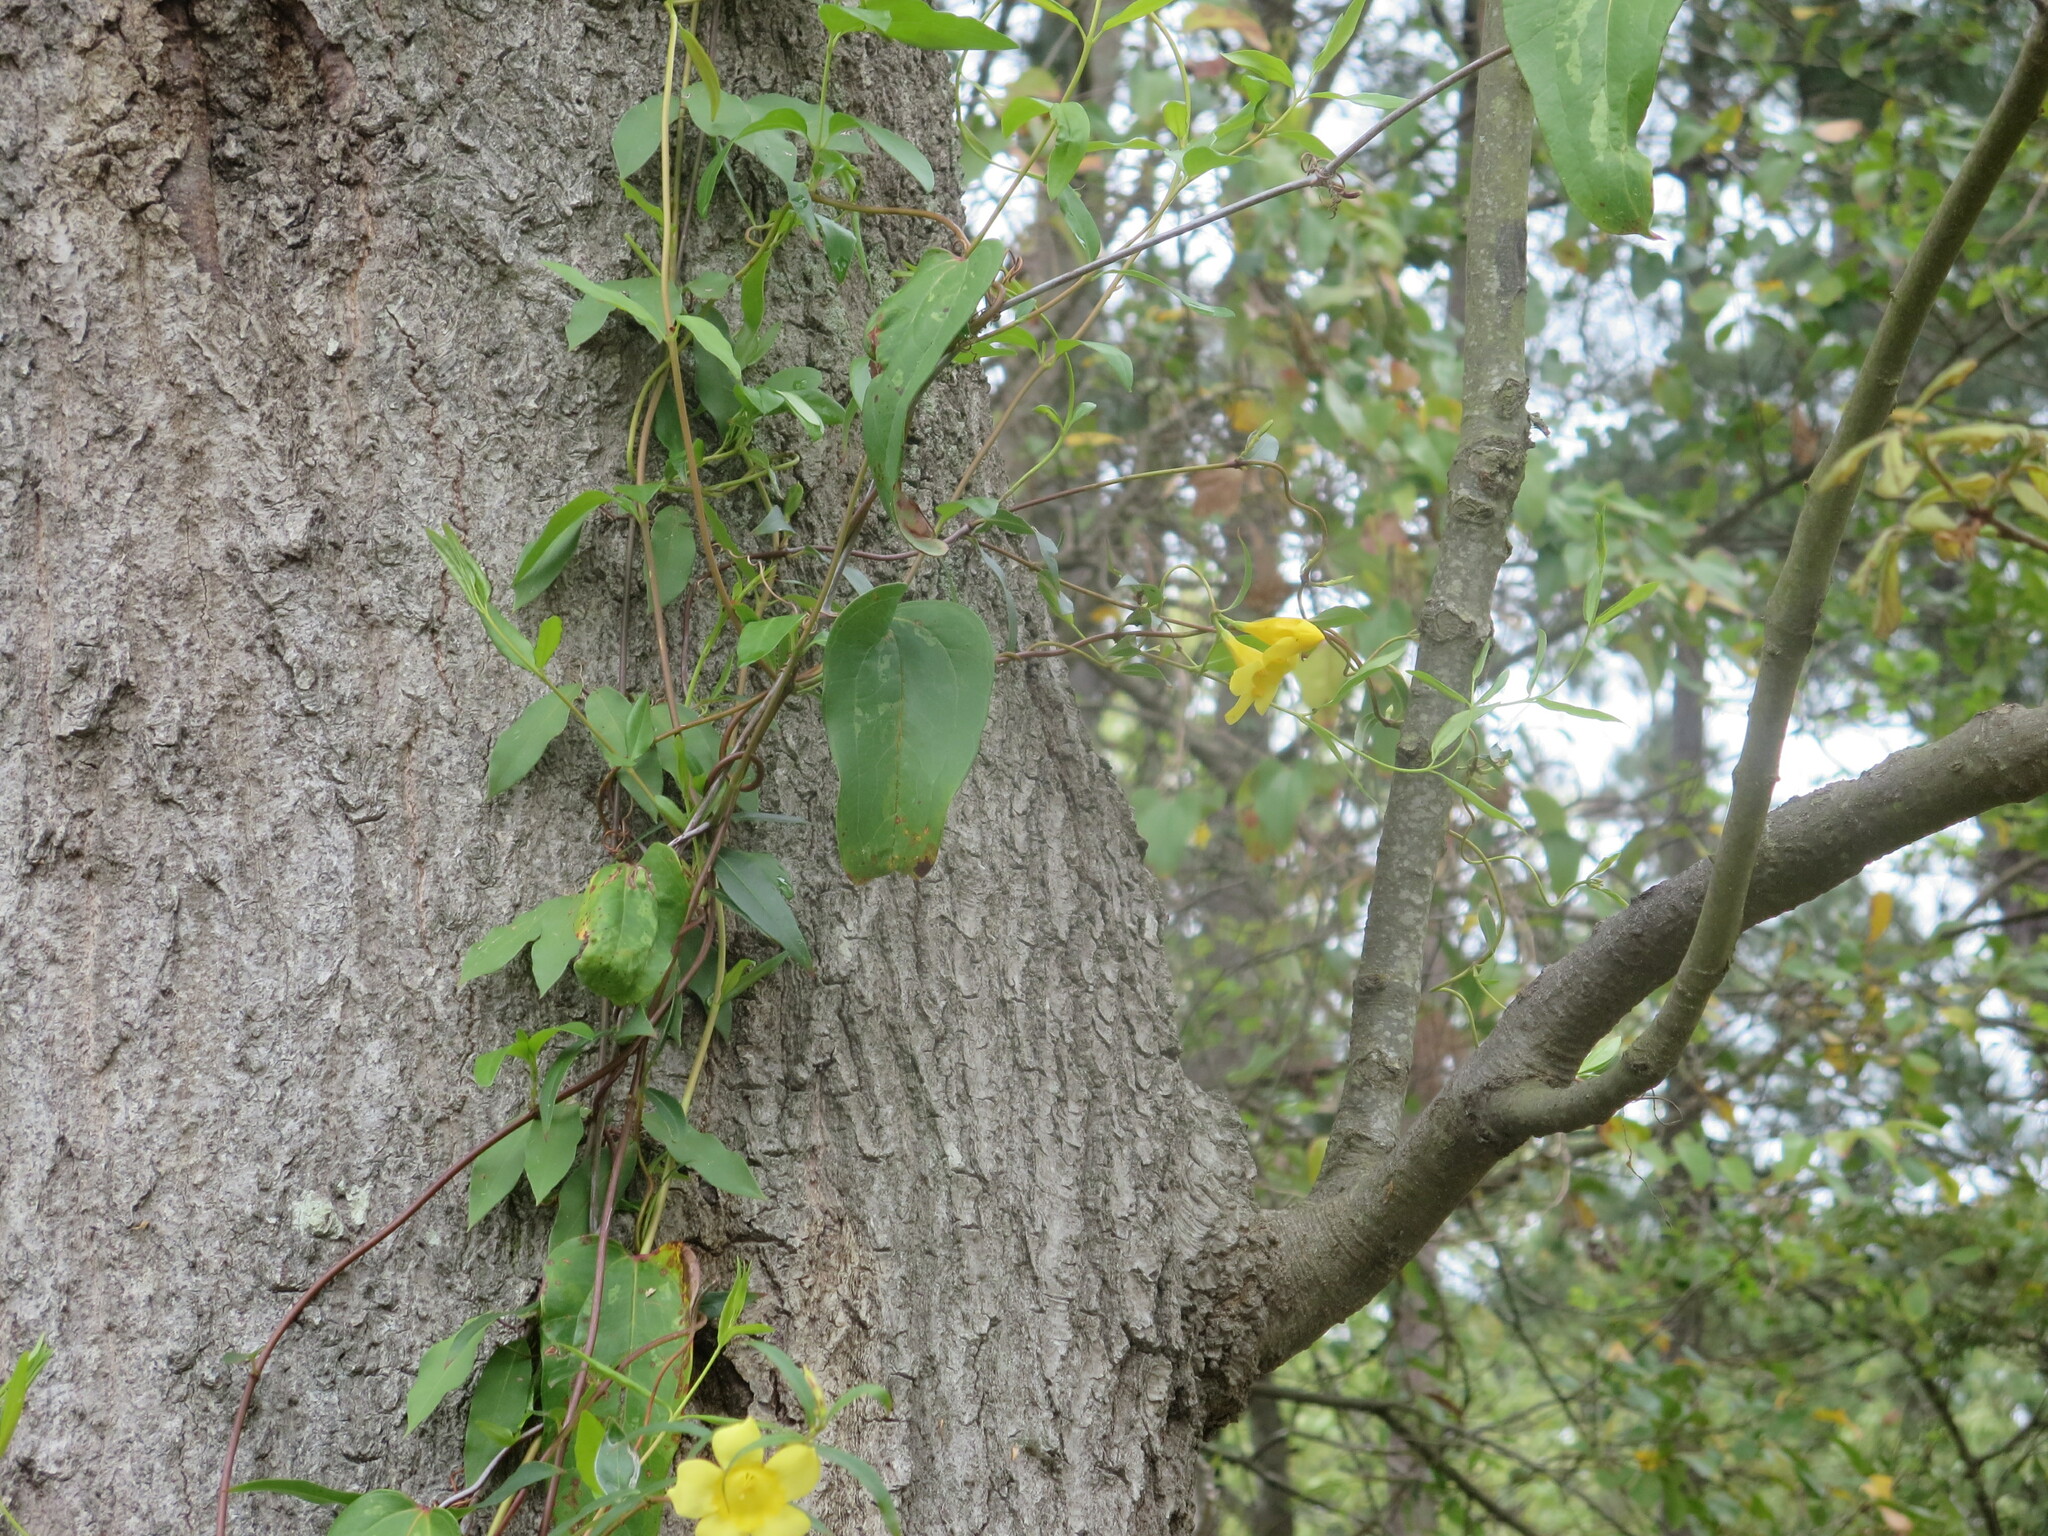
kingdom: Plantae
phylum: Tracheophyta
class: Magnoliopsida
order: Gentianales
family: Gelsemiaceae
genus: Gelsemium
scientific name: Gelsemium sempervirens
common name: Carolina-jasmine
